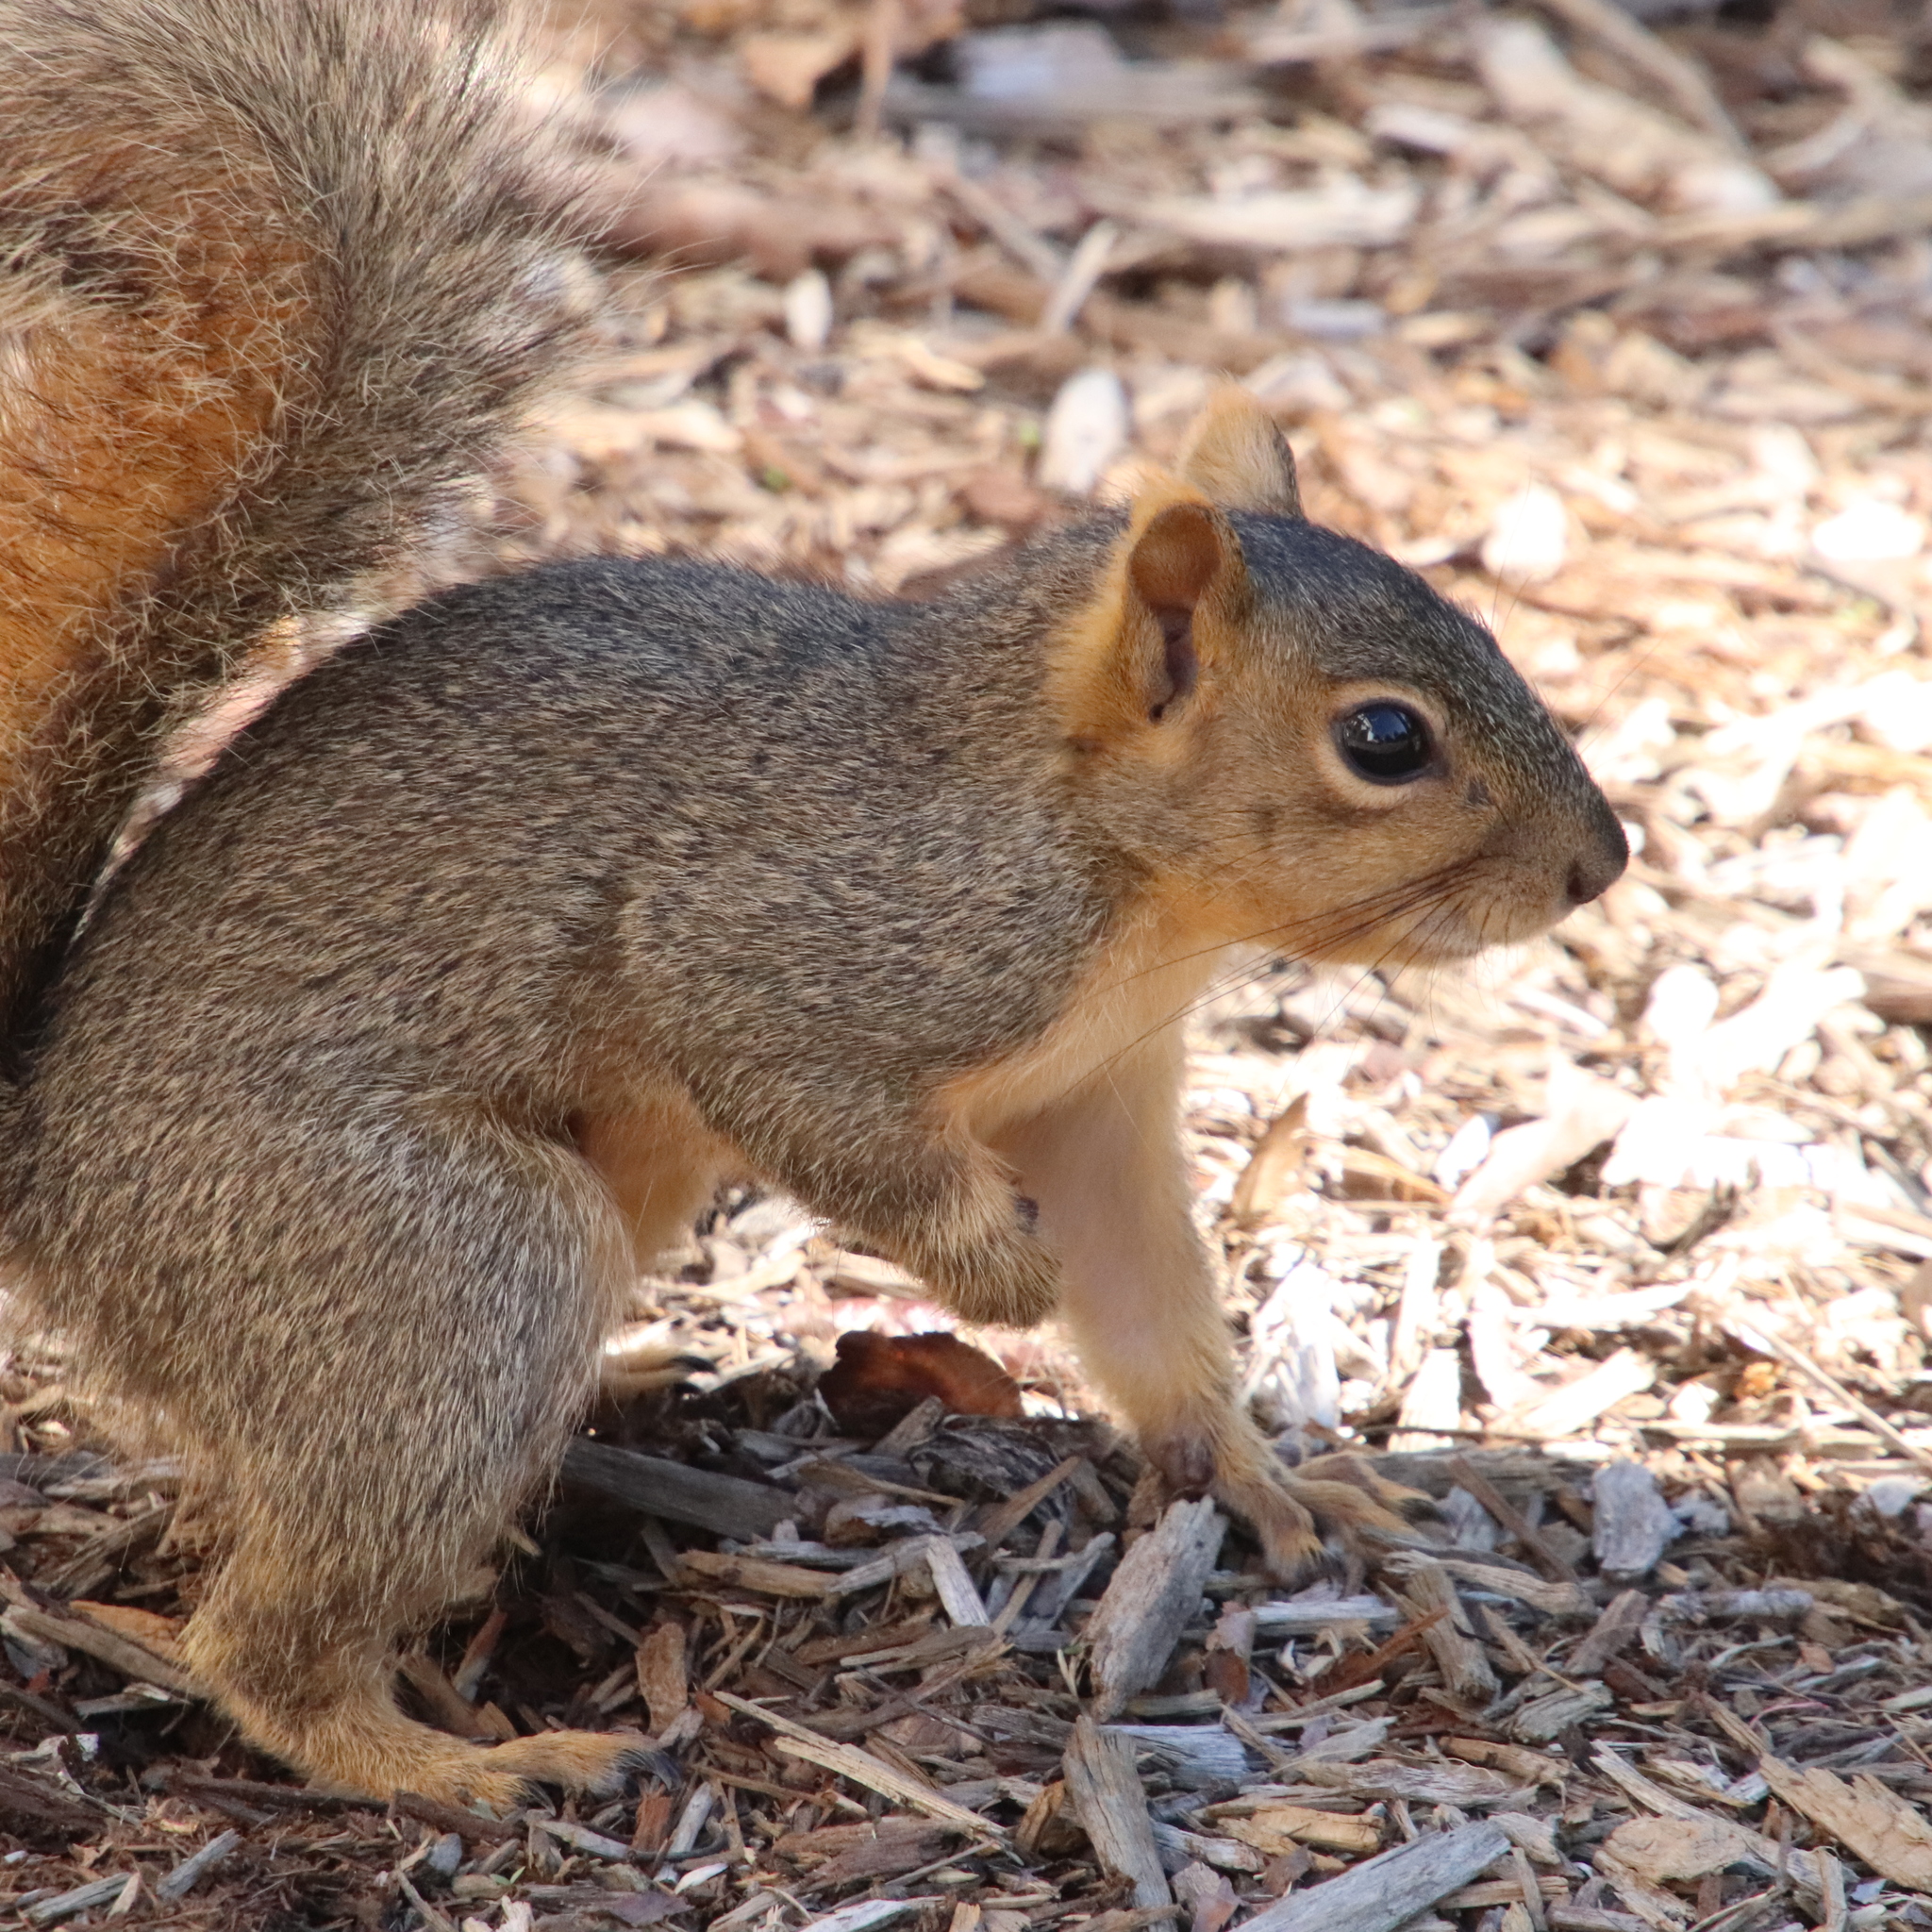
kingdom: Animalia
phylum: Chordata
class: Mammalia
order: Rodentia
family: Sciuridae
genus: Sciurus
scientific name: Sciurus niger
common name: Fox squirrel
